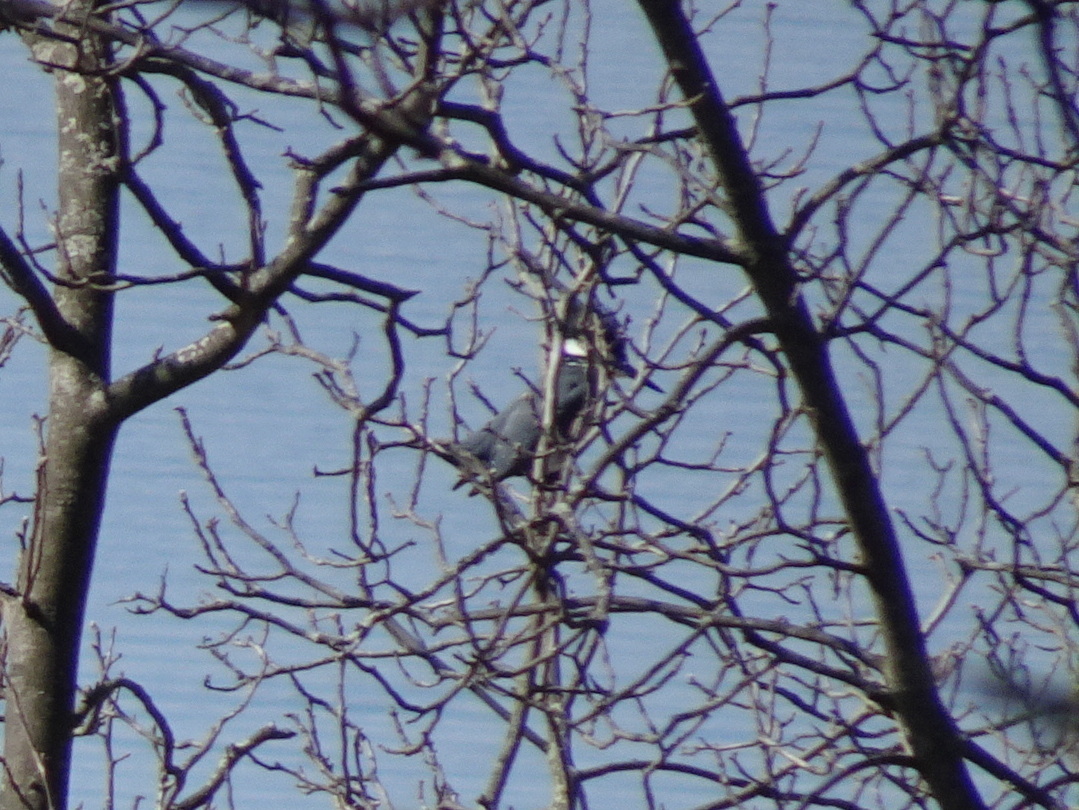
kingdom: Animalia
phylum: Chordata
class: Aves
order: Coraciiformes
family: Alcedinidae
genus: Megaceryle
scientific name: Megaceryle alcyon
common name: Belted kingfisher
